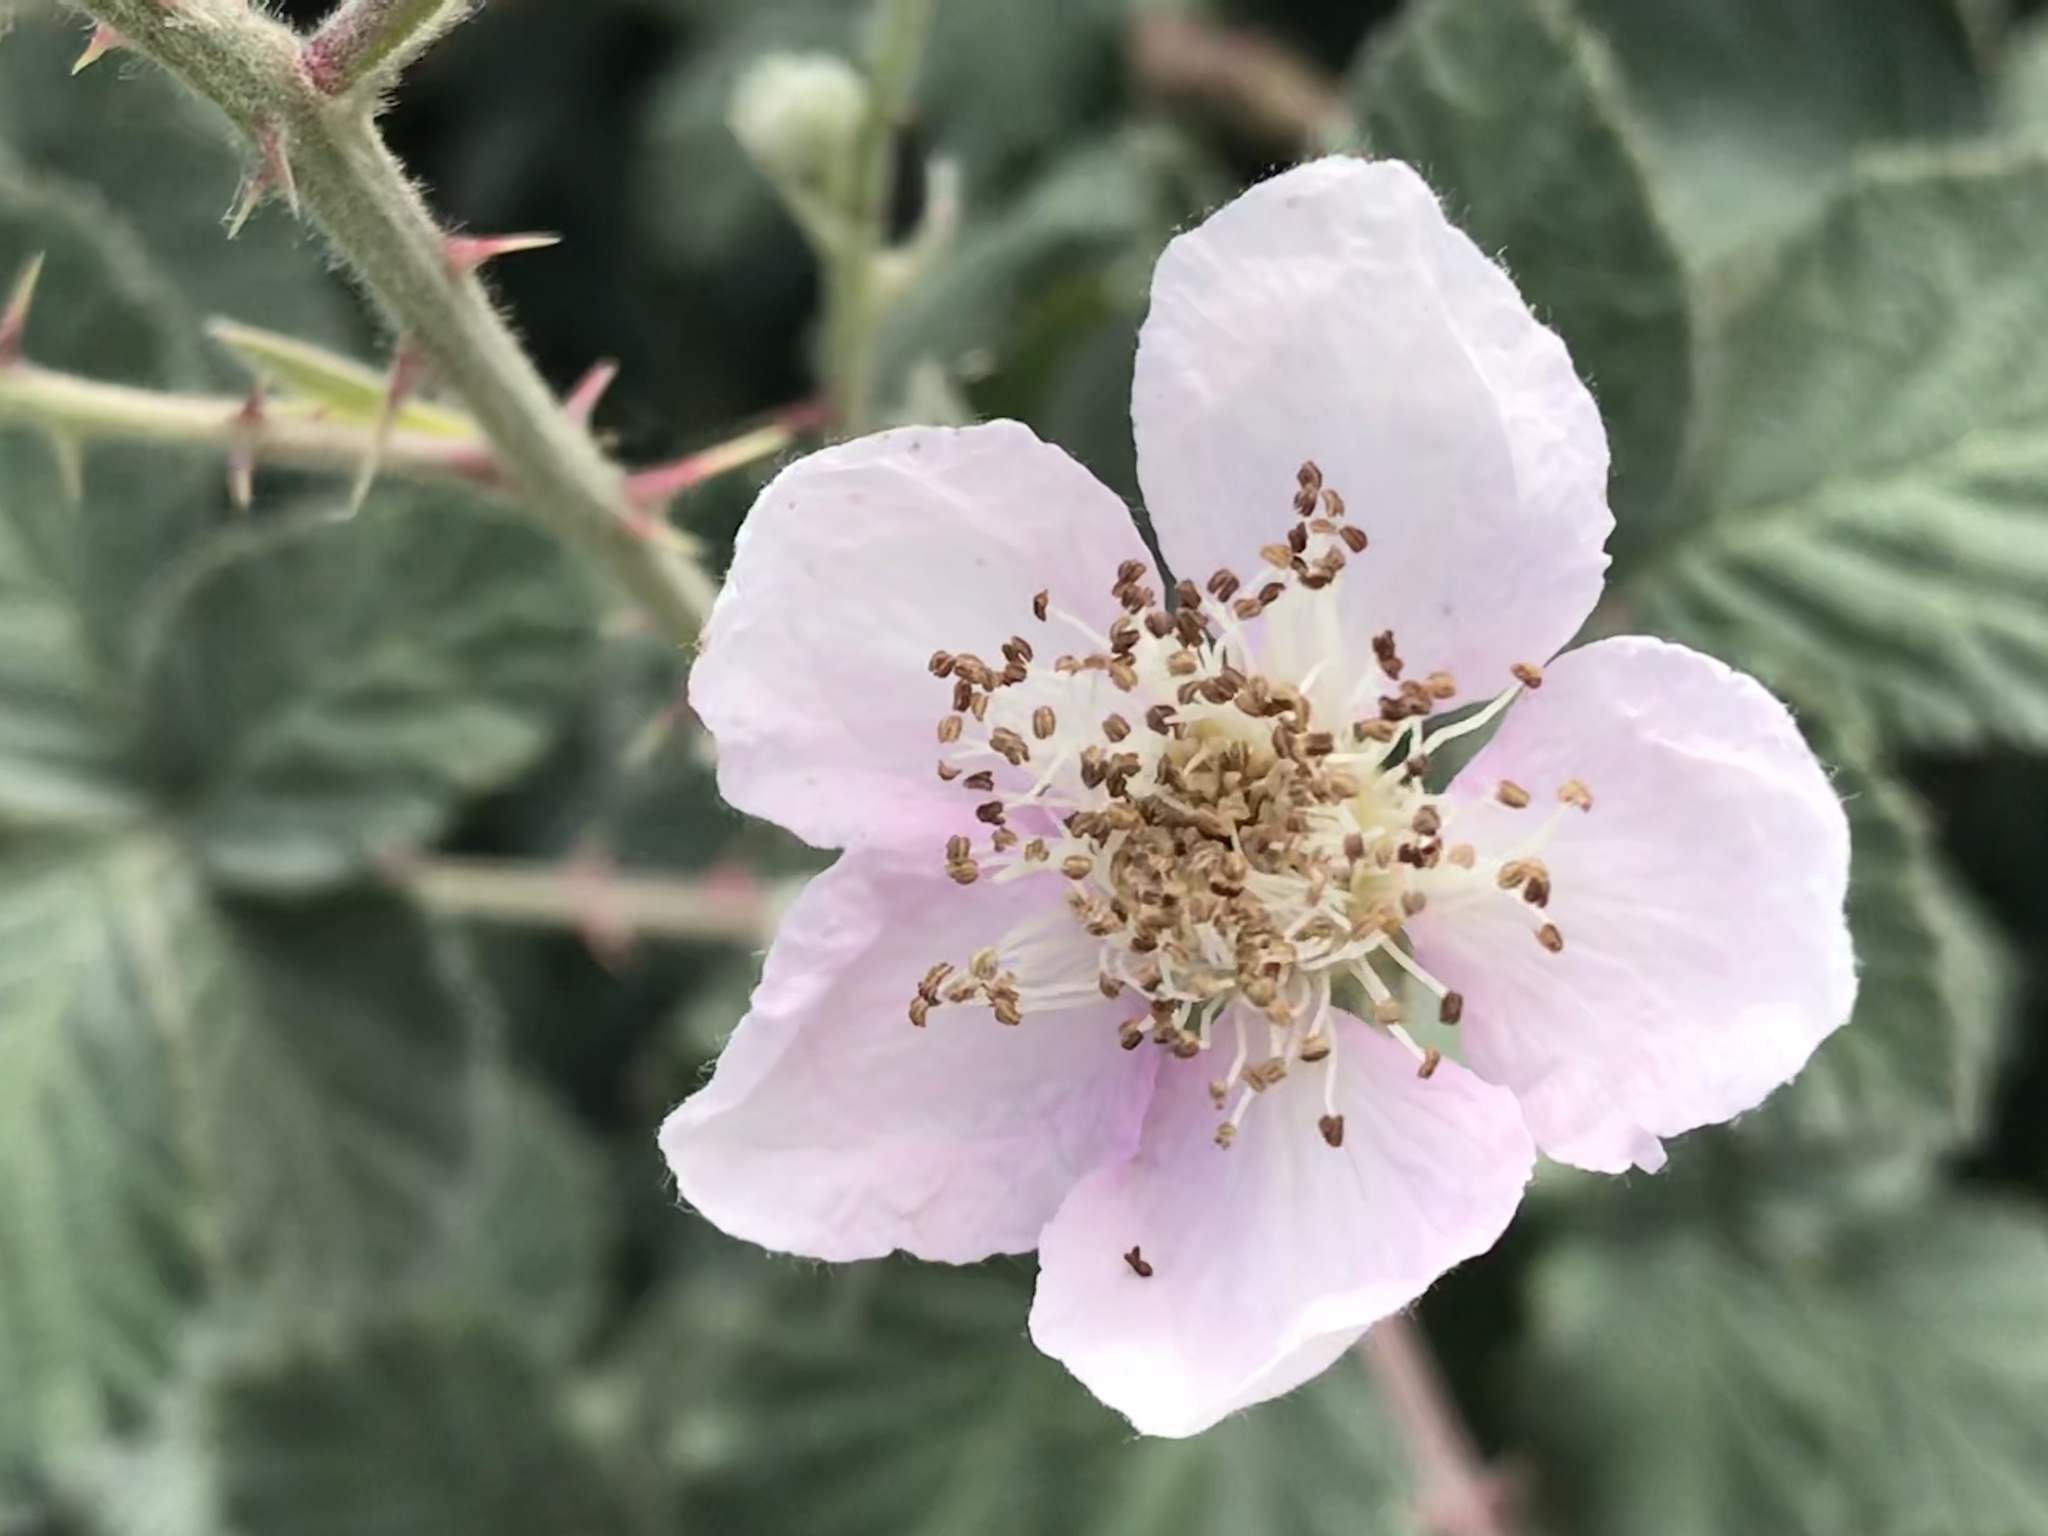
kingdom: Plantae
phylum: Tracheophyta
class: Magnoliopsida
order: Rosales
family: Rosaceae
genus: Rubus
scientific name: Rubus bifrons
